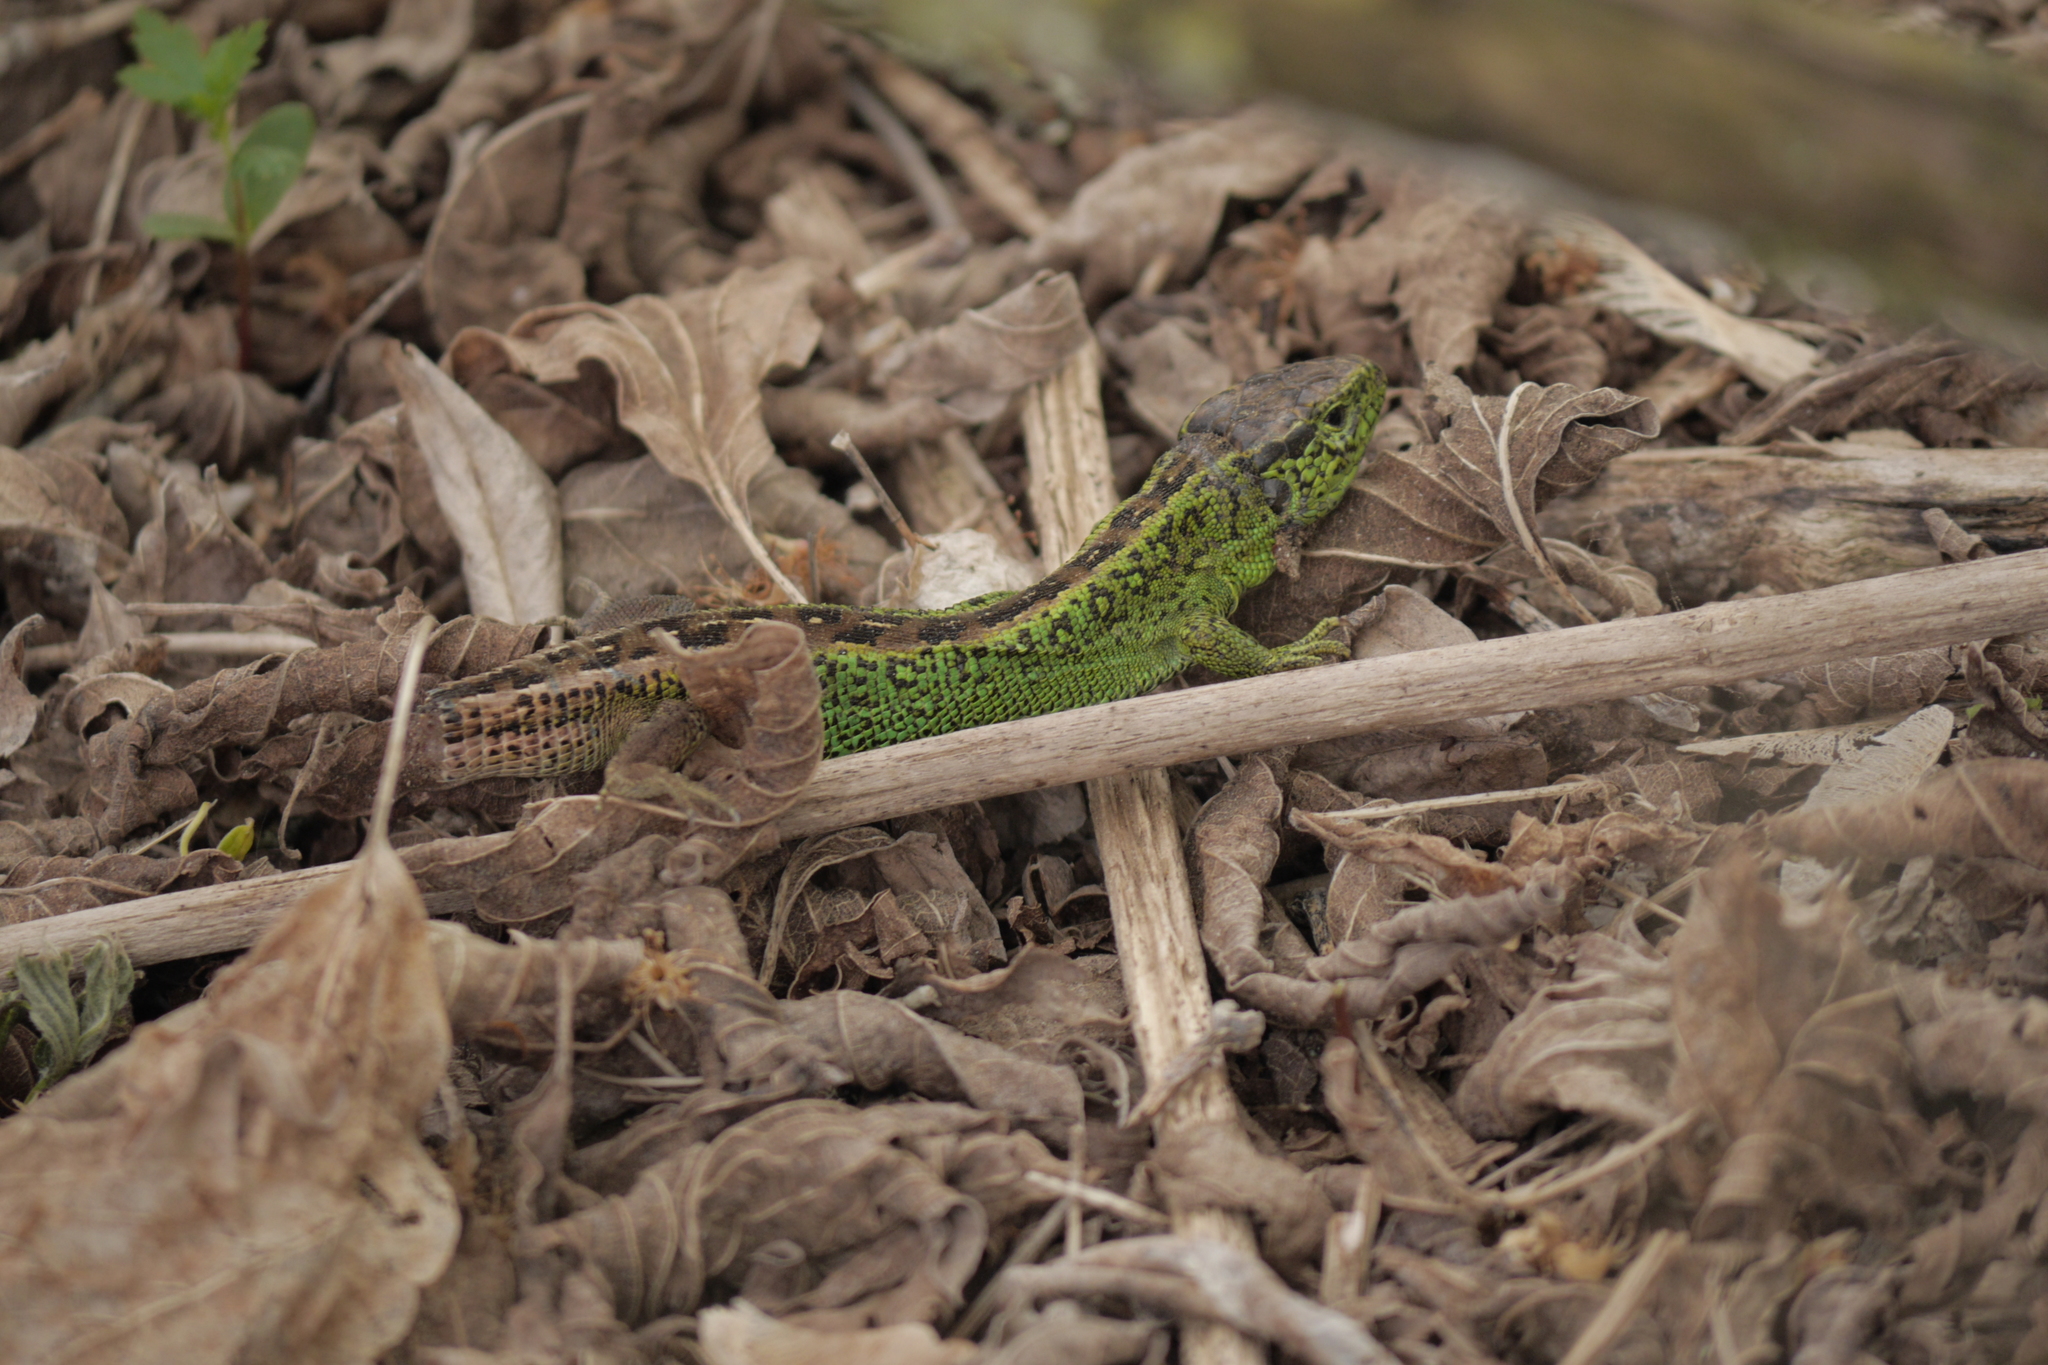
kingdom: Animalia
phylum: Chordata
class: Squamata
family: Lacertidae
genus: Lacerta
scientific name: Lacerta agilis
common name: Sand lizard
